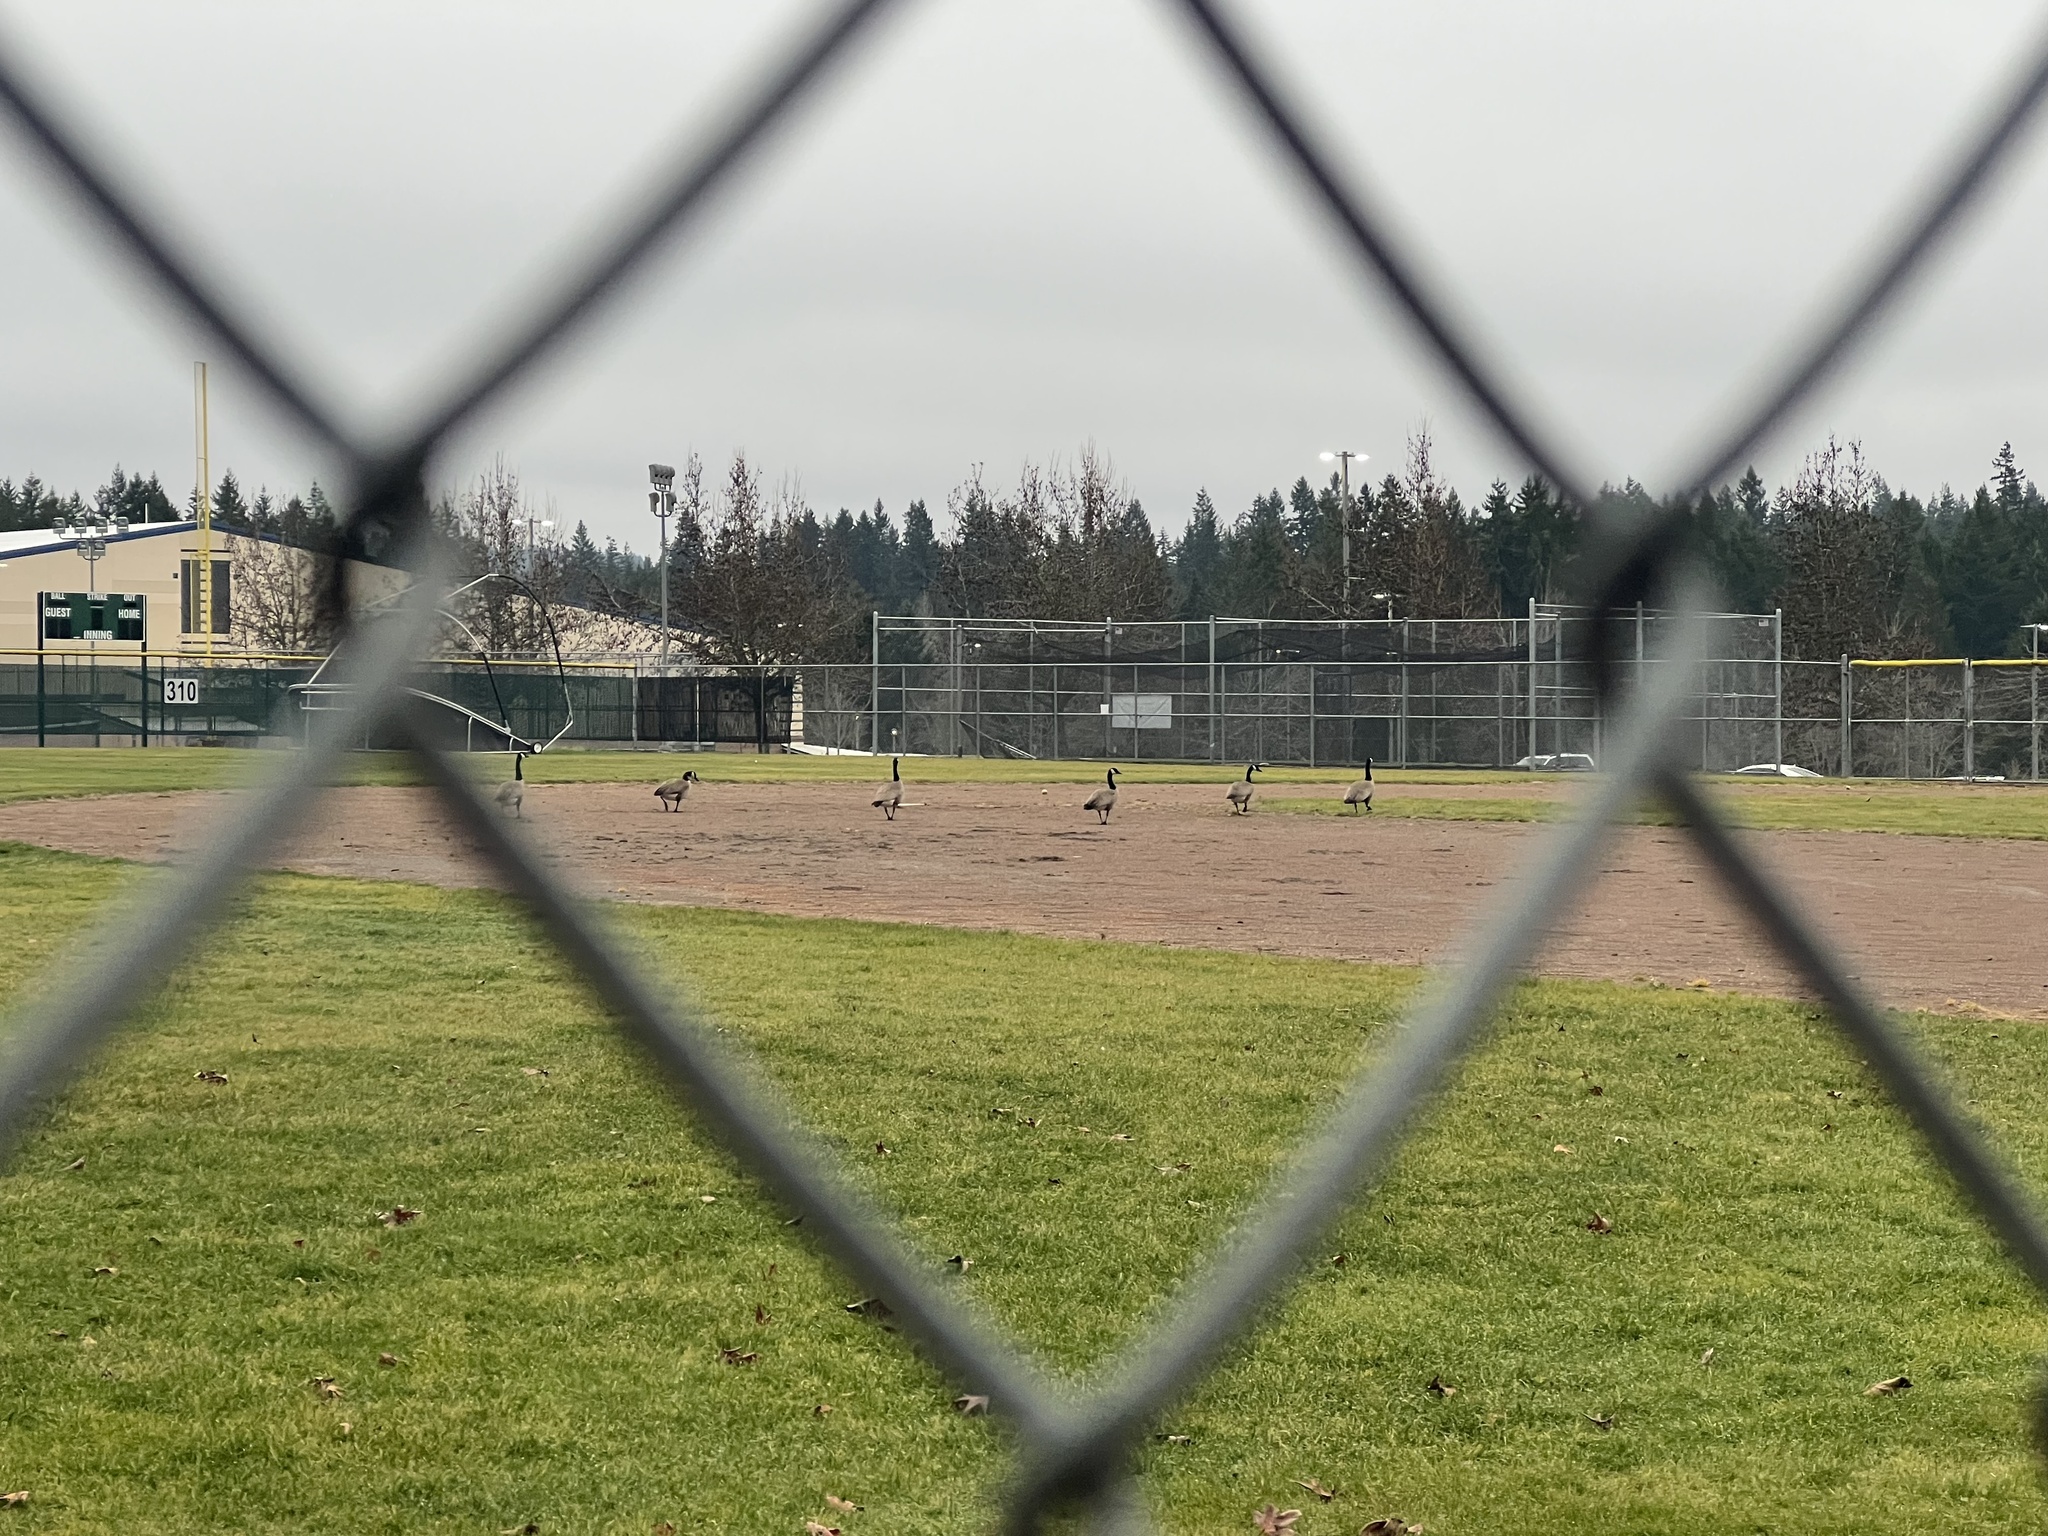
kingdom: Animalia
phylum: Chordata
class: Aves
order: Anseriformes
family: Anatidae
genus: Branta
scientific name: Branta canadensis
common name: Canada goose
